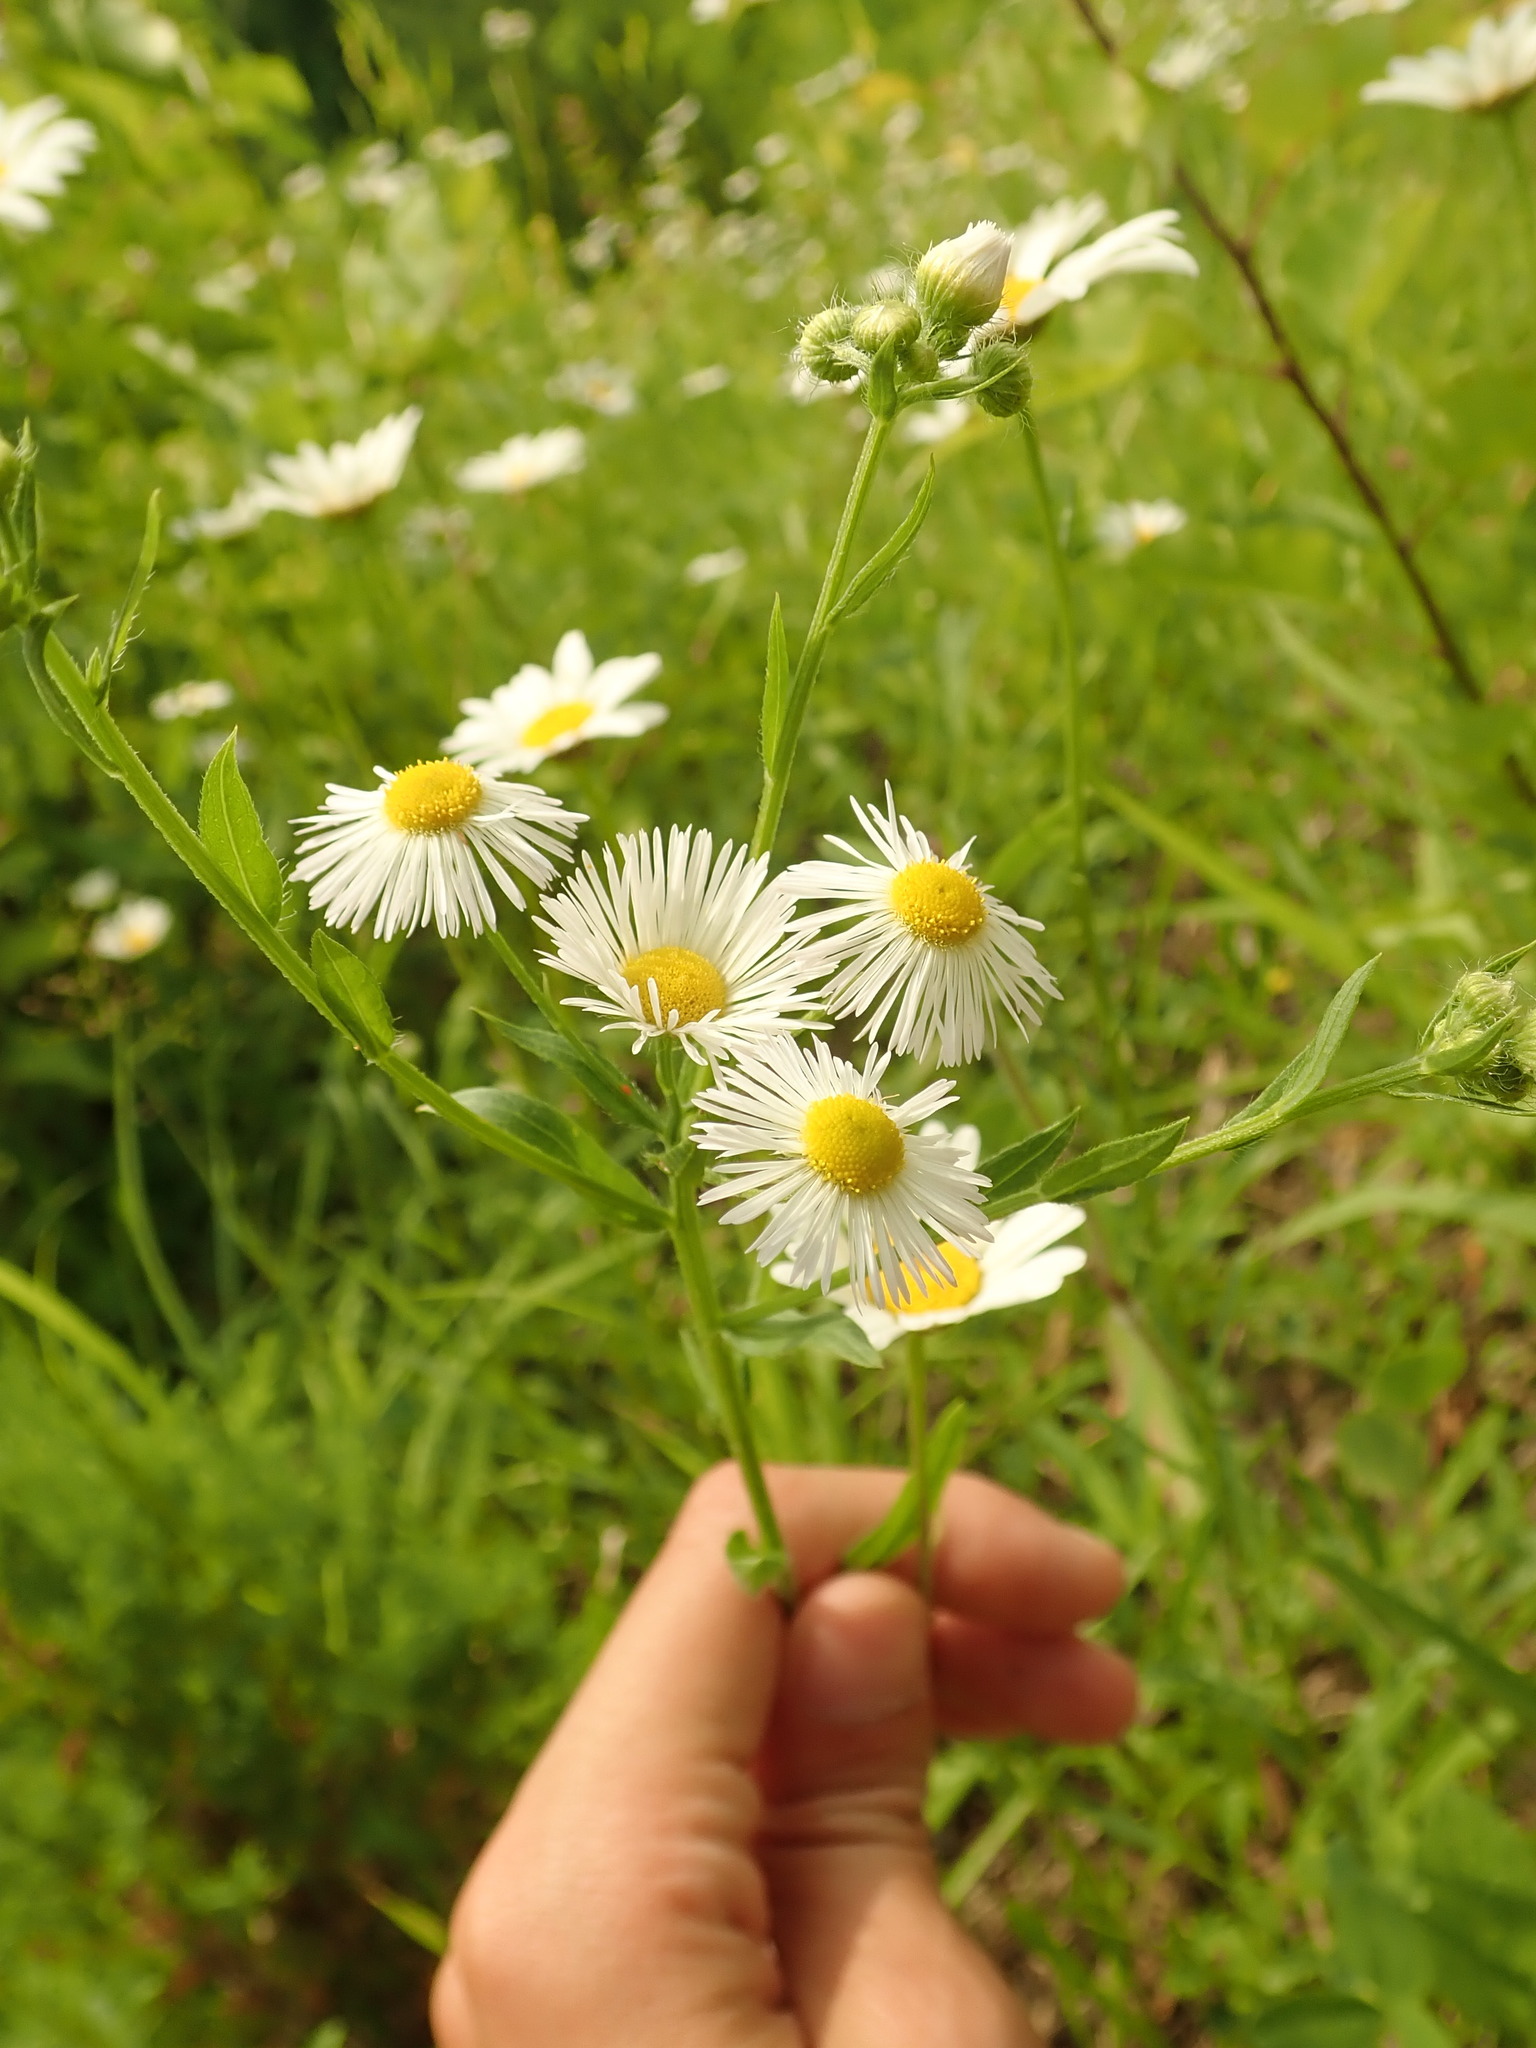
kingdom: Plantae
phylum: Tracheophyta
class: Magnoliopsida
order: Asterales
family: Asteraceae
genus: Erigeron
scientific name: Erigeron annuus
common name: Tall fleabane
